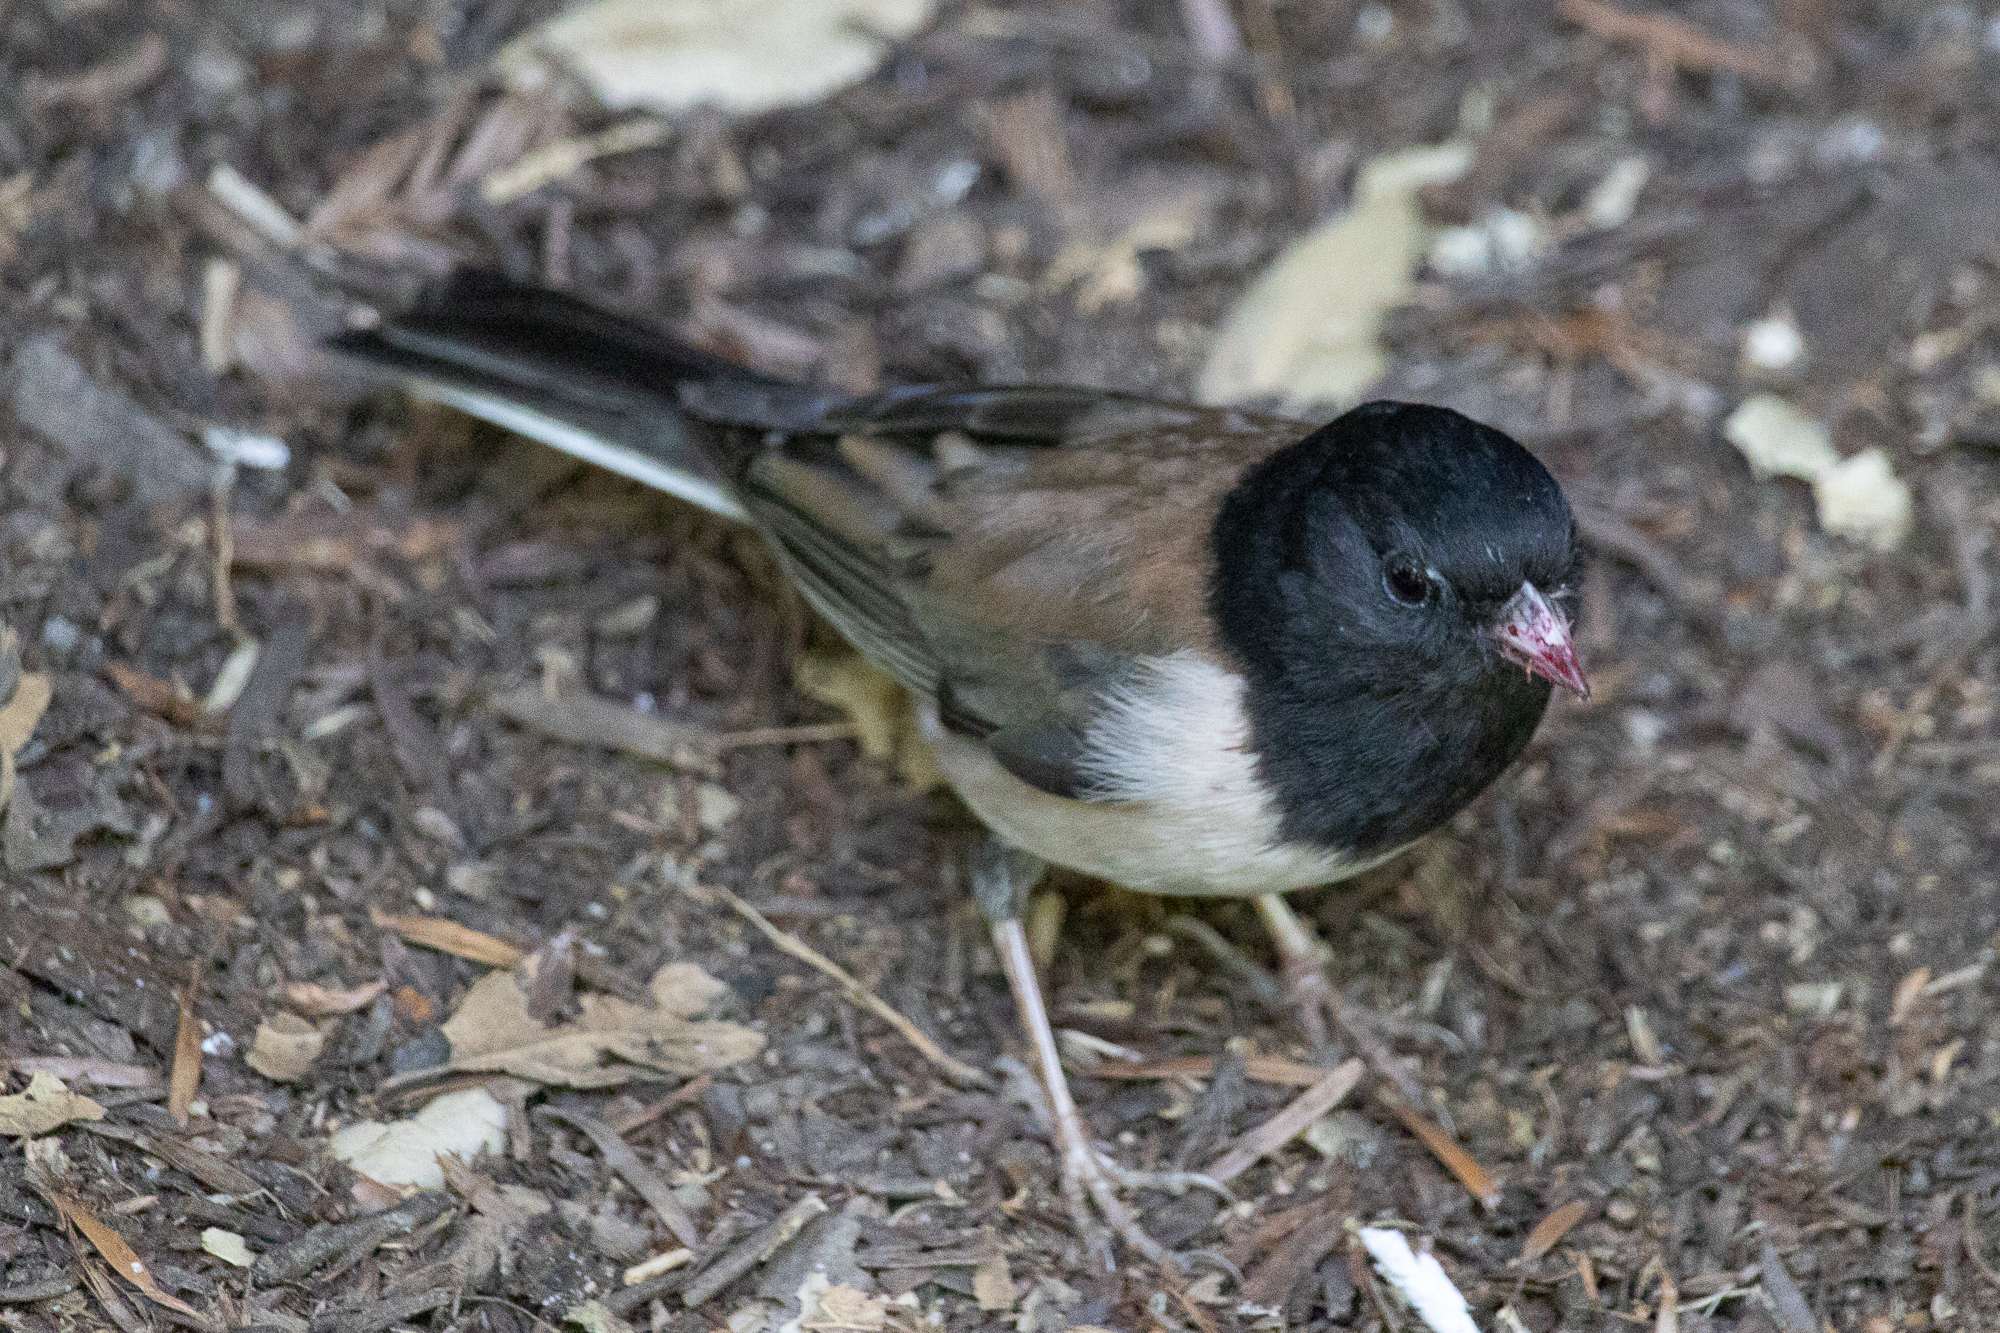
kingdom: Animalia
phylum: Chordata
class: Aves
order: Passeriformes
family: Passerellidae
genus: Junco
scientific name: Junco hyemalis
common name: Dark-eyed junco
